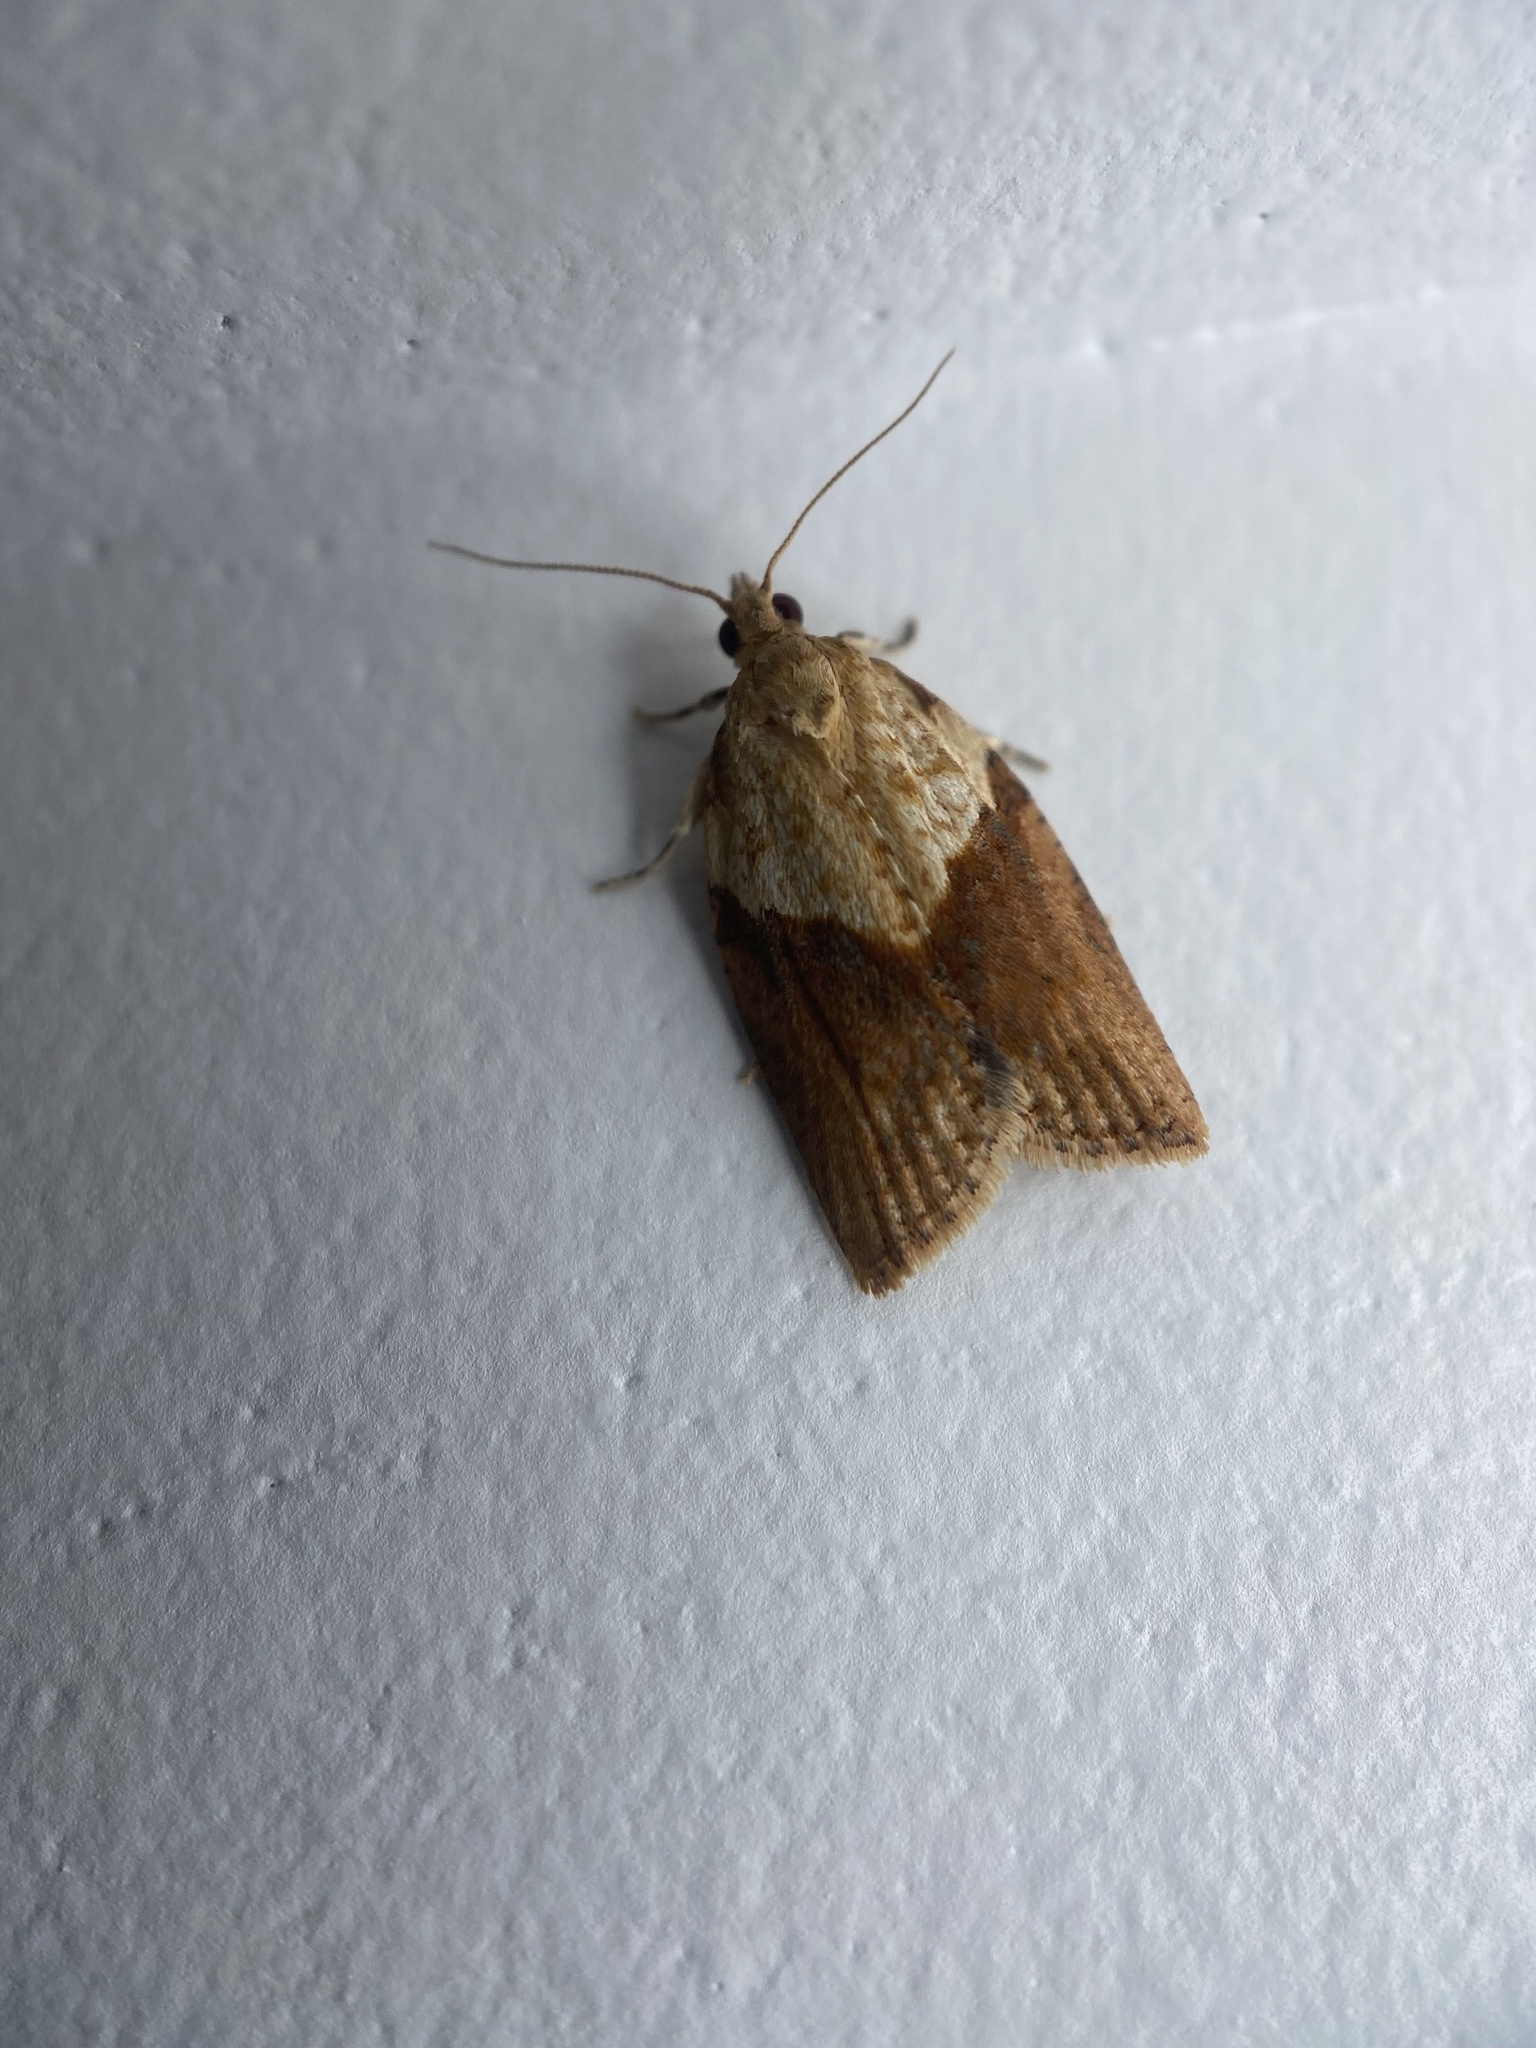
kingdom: Animalia
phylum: Arthropoda
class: Insecta
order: Lepidoptera
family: Tortricidae
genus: Epiphyas
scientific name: Epiphyas postvittana
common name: Light brown apple moth
